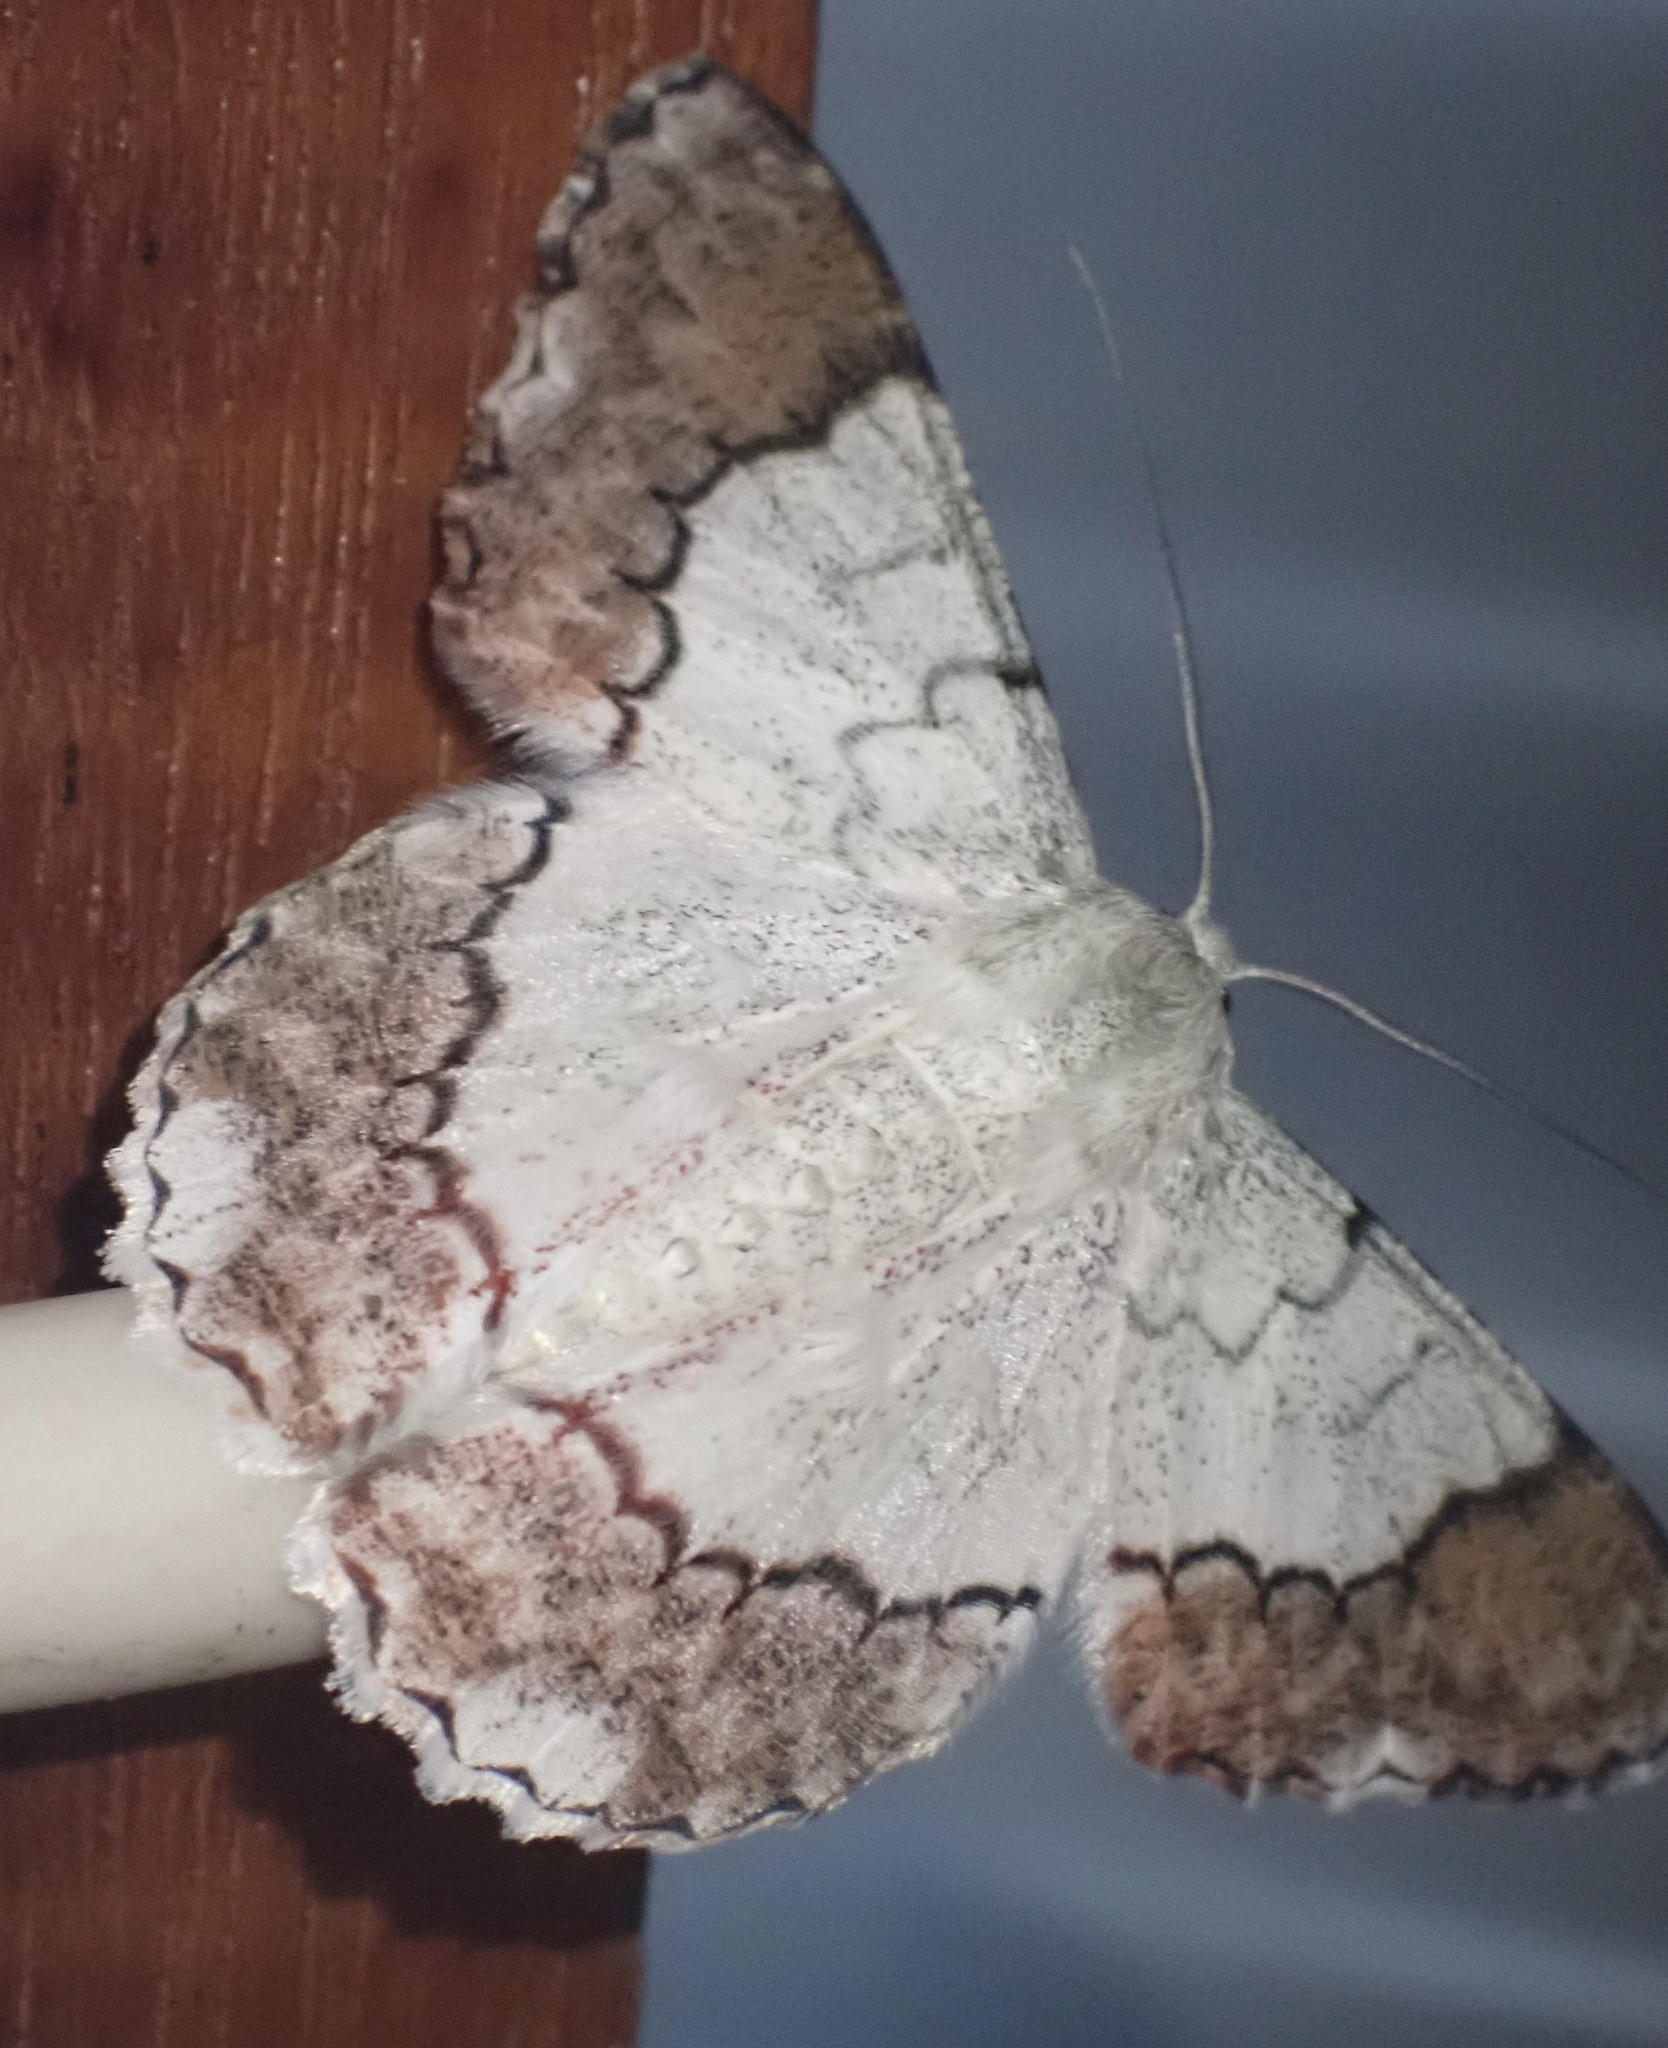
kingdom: Animalia
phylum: Arthropoda
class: Insecta
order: Lepidoptera
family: Geometridae
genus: Pingasa
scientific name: Pingasa nobilis
